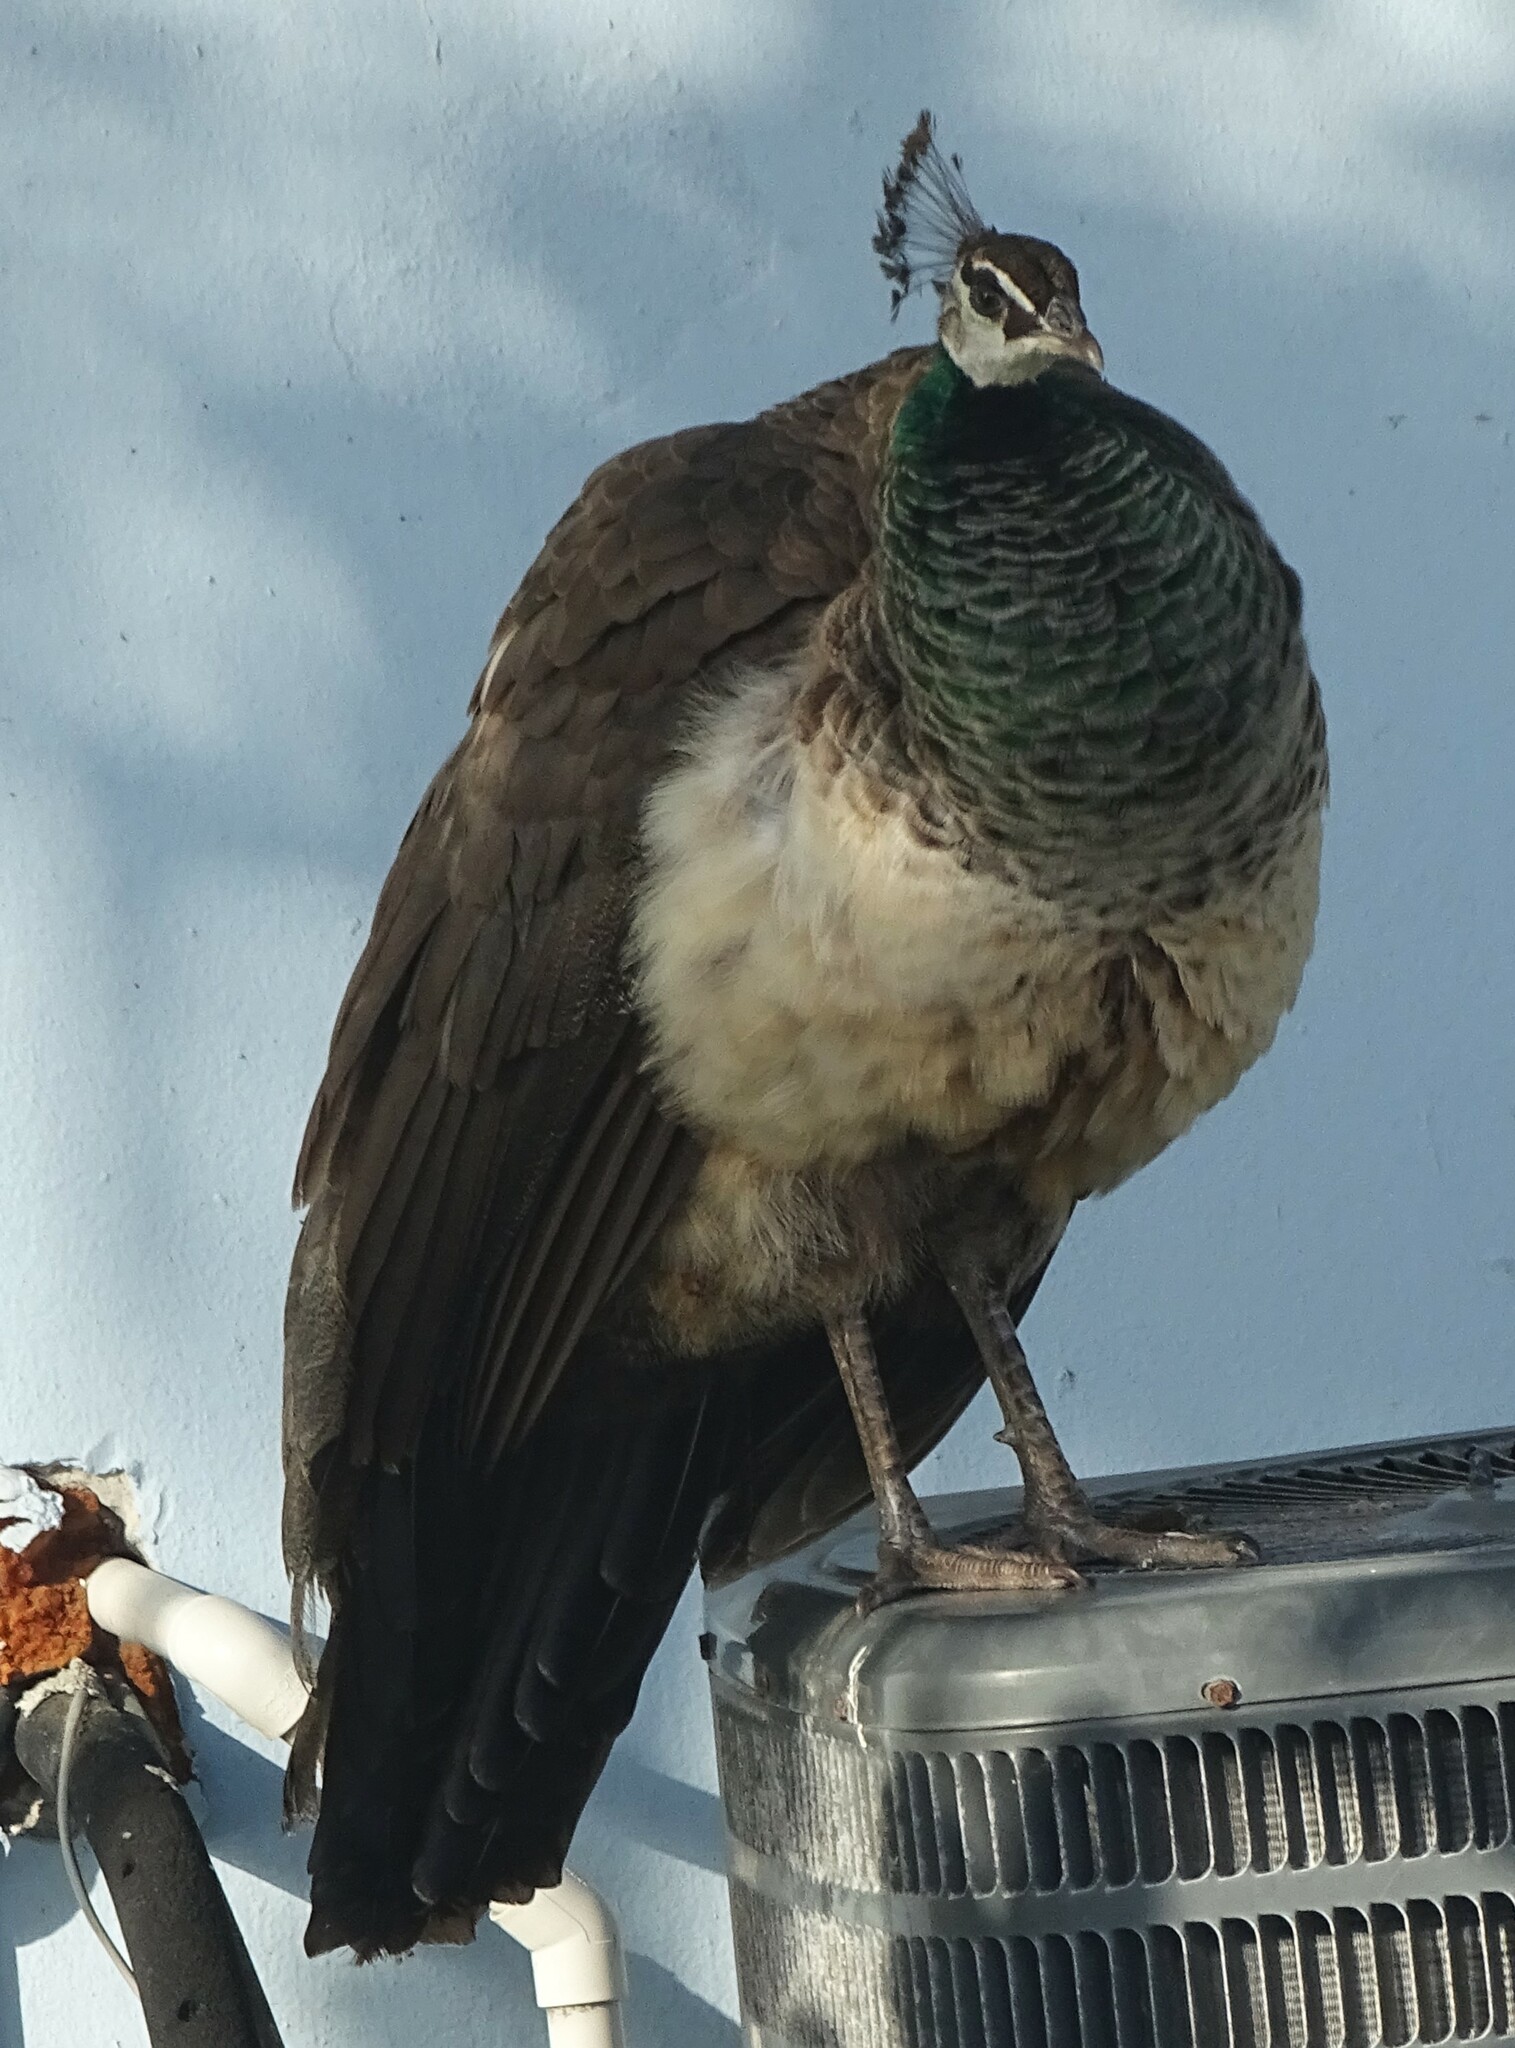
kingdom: Animalia
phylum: Chordata
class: Aves
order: Galliformes
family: Phasianidae
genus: Pavo
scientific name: Pavo cristatus
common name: Indian peafowl
